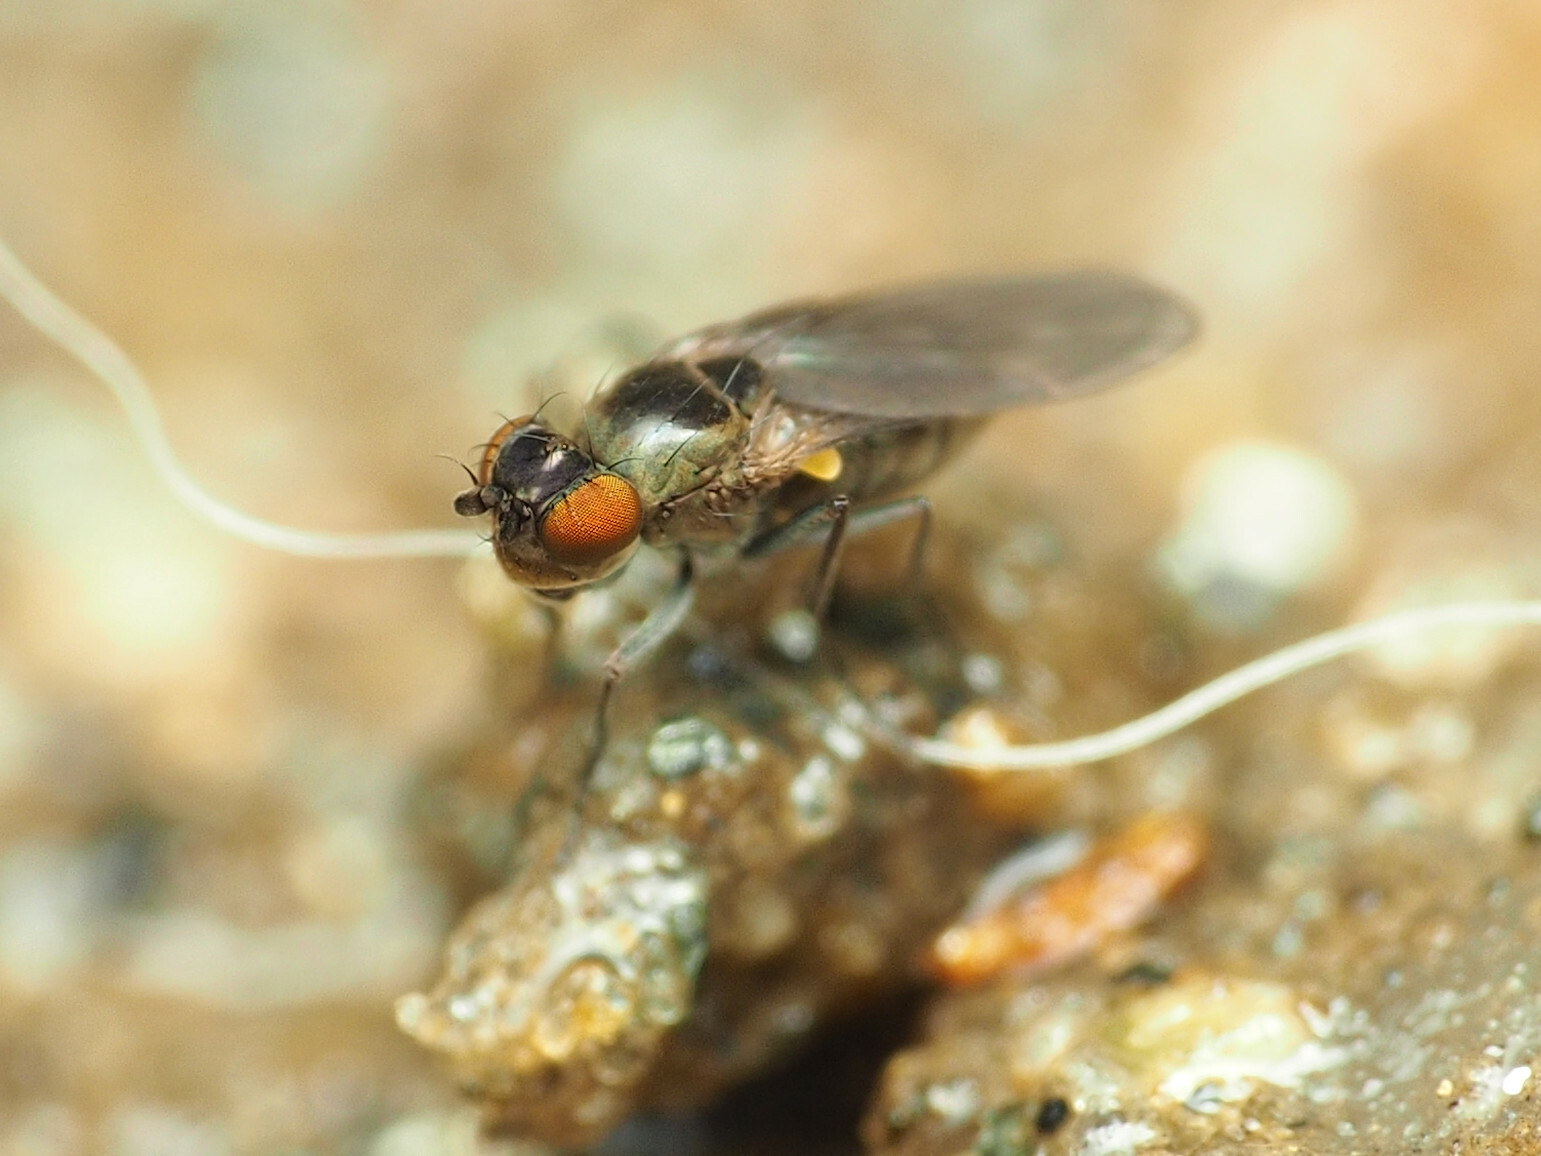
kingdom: Animalia
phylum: Arthropoda
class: Insecta
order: Diptera
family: Ephydridae
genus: Scatella
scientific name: Scatella favillacea
